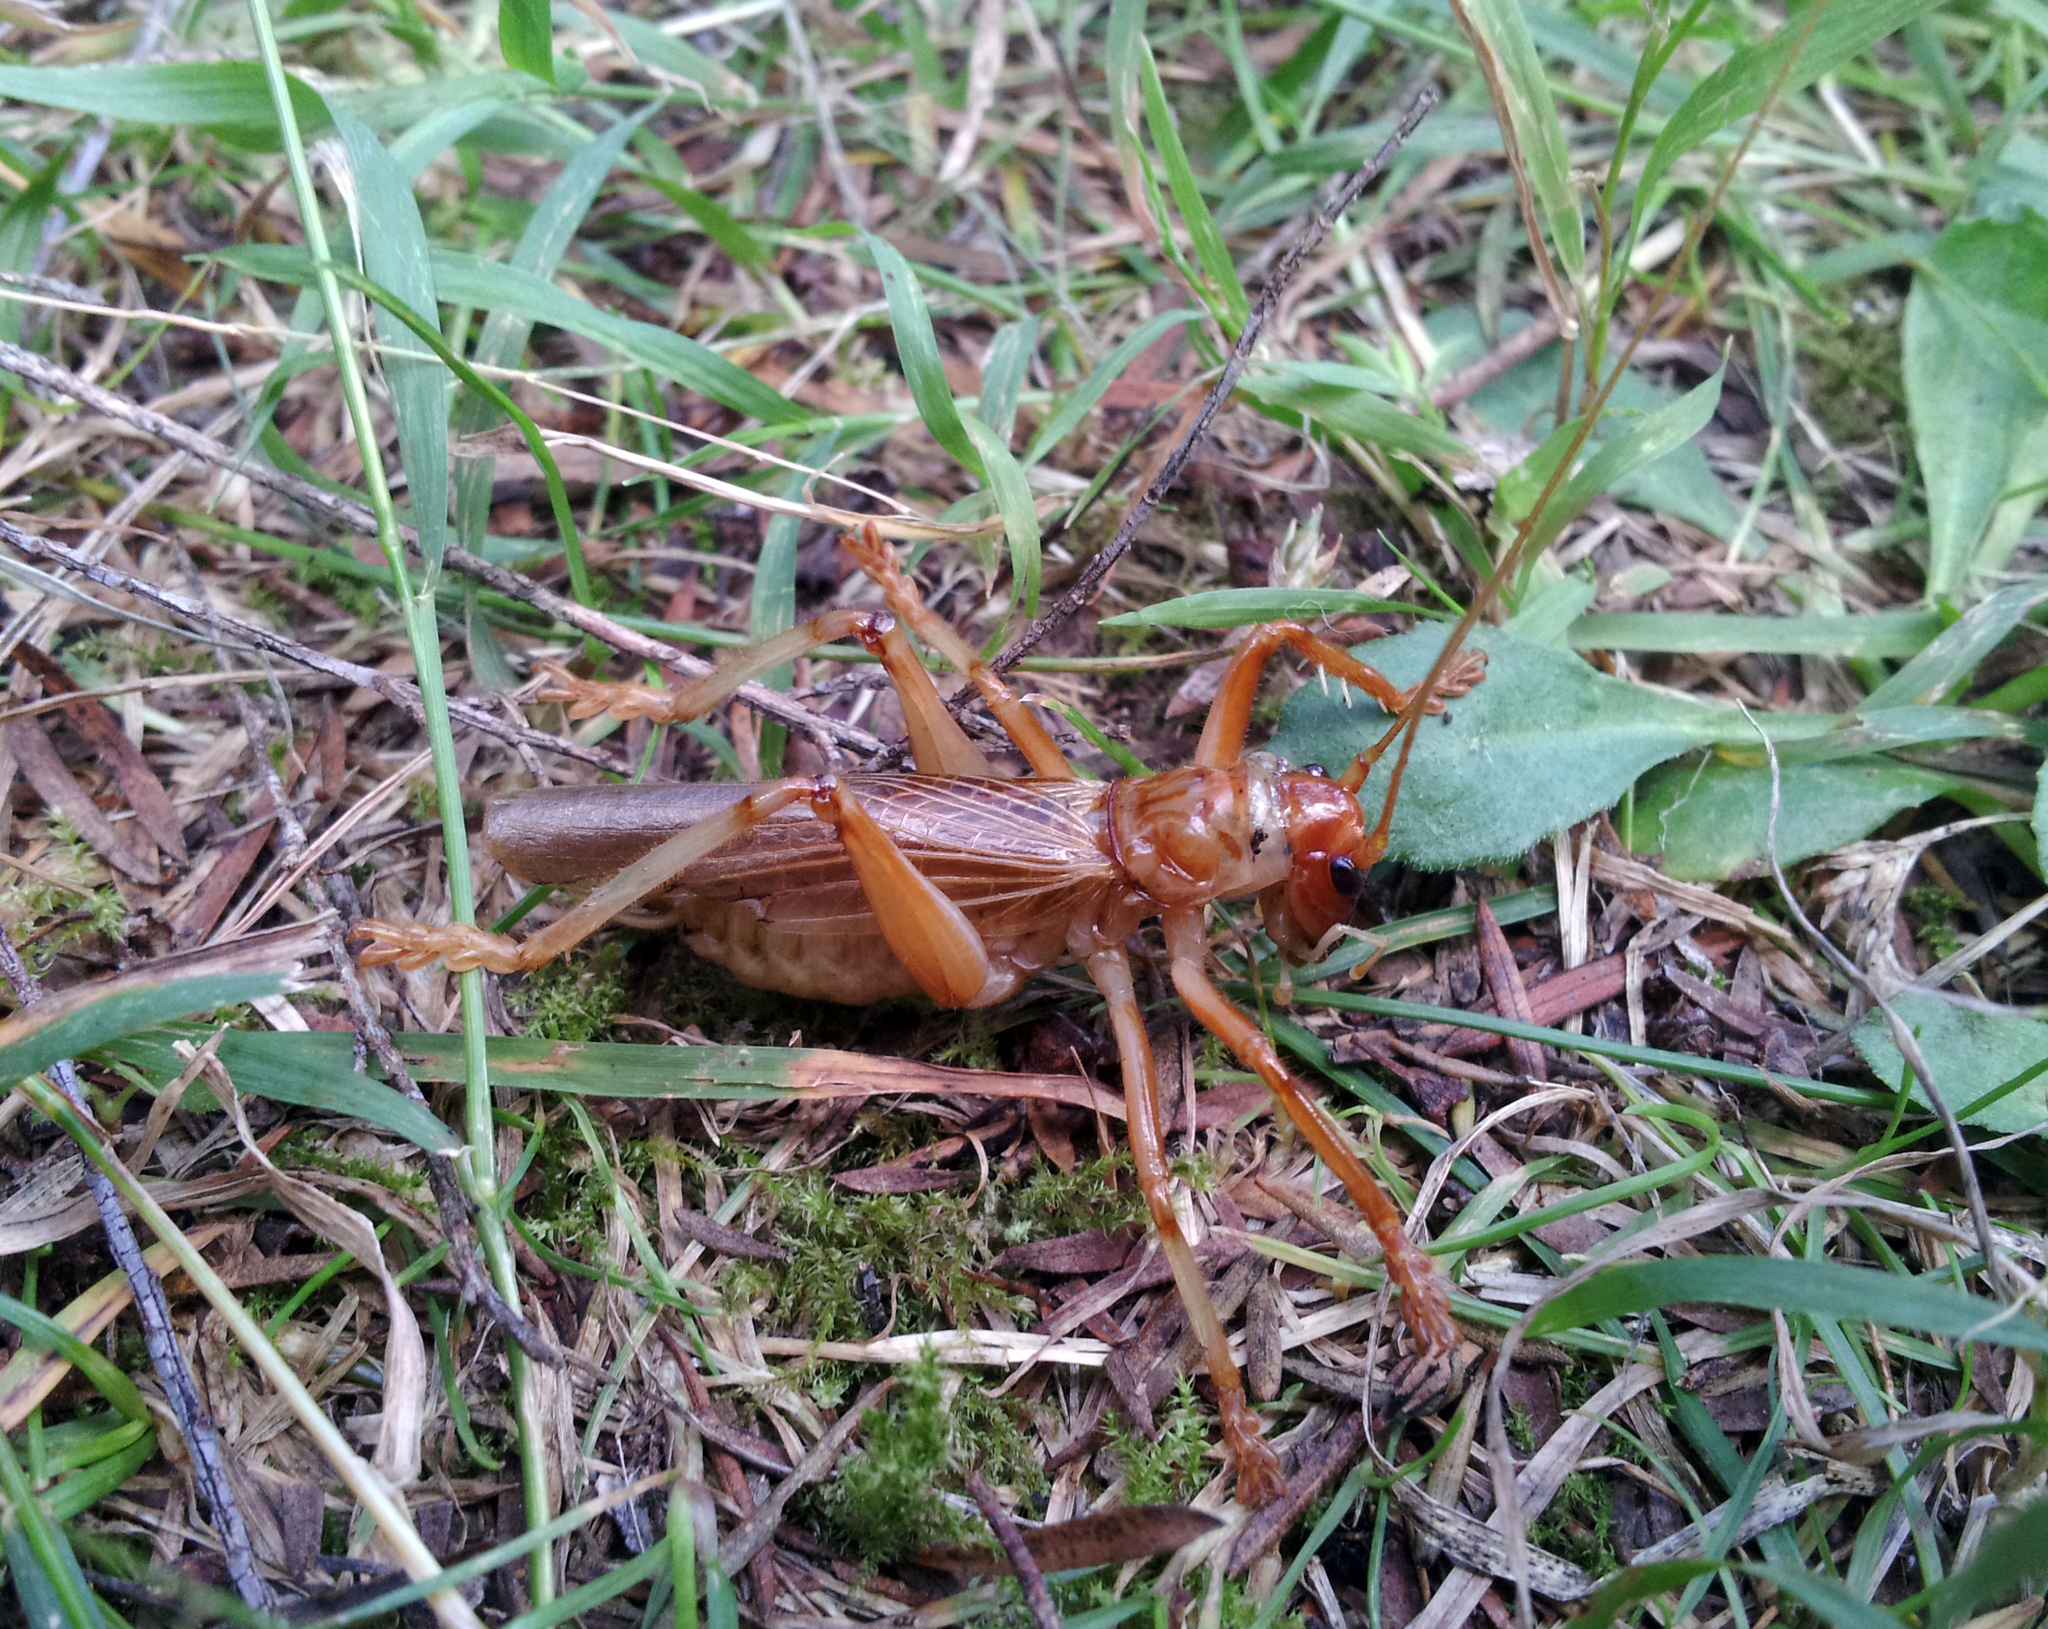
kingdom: Animalia
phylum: Arthropoda
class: Insecta
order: Orthoptera
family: Gryllacrididae
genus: Pterapotrechus
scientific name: Pterapotrechus
